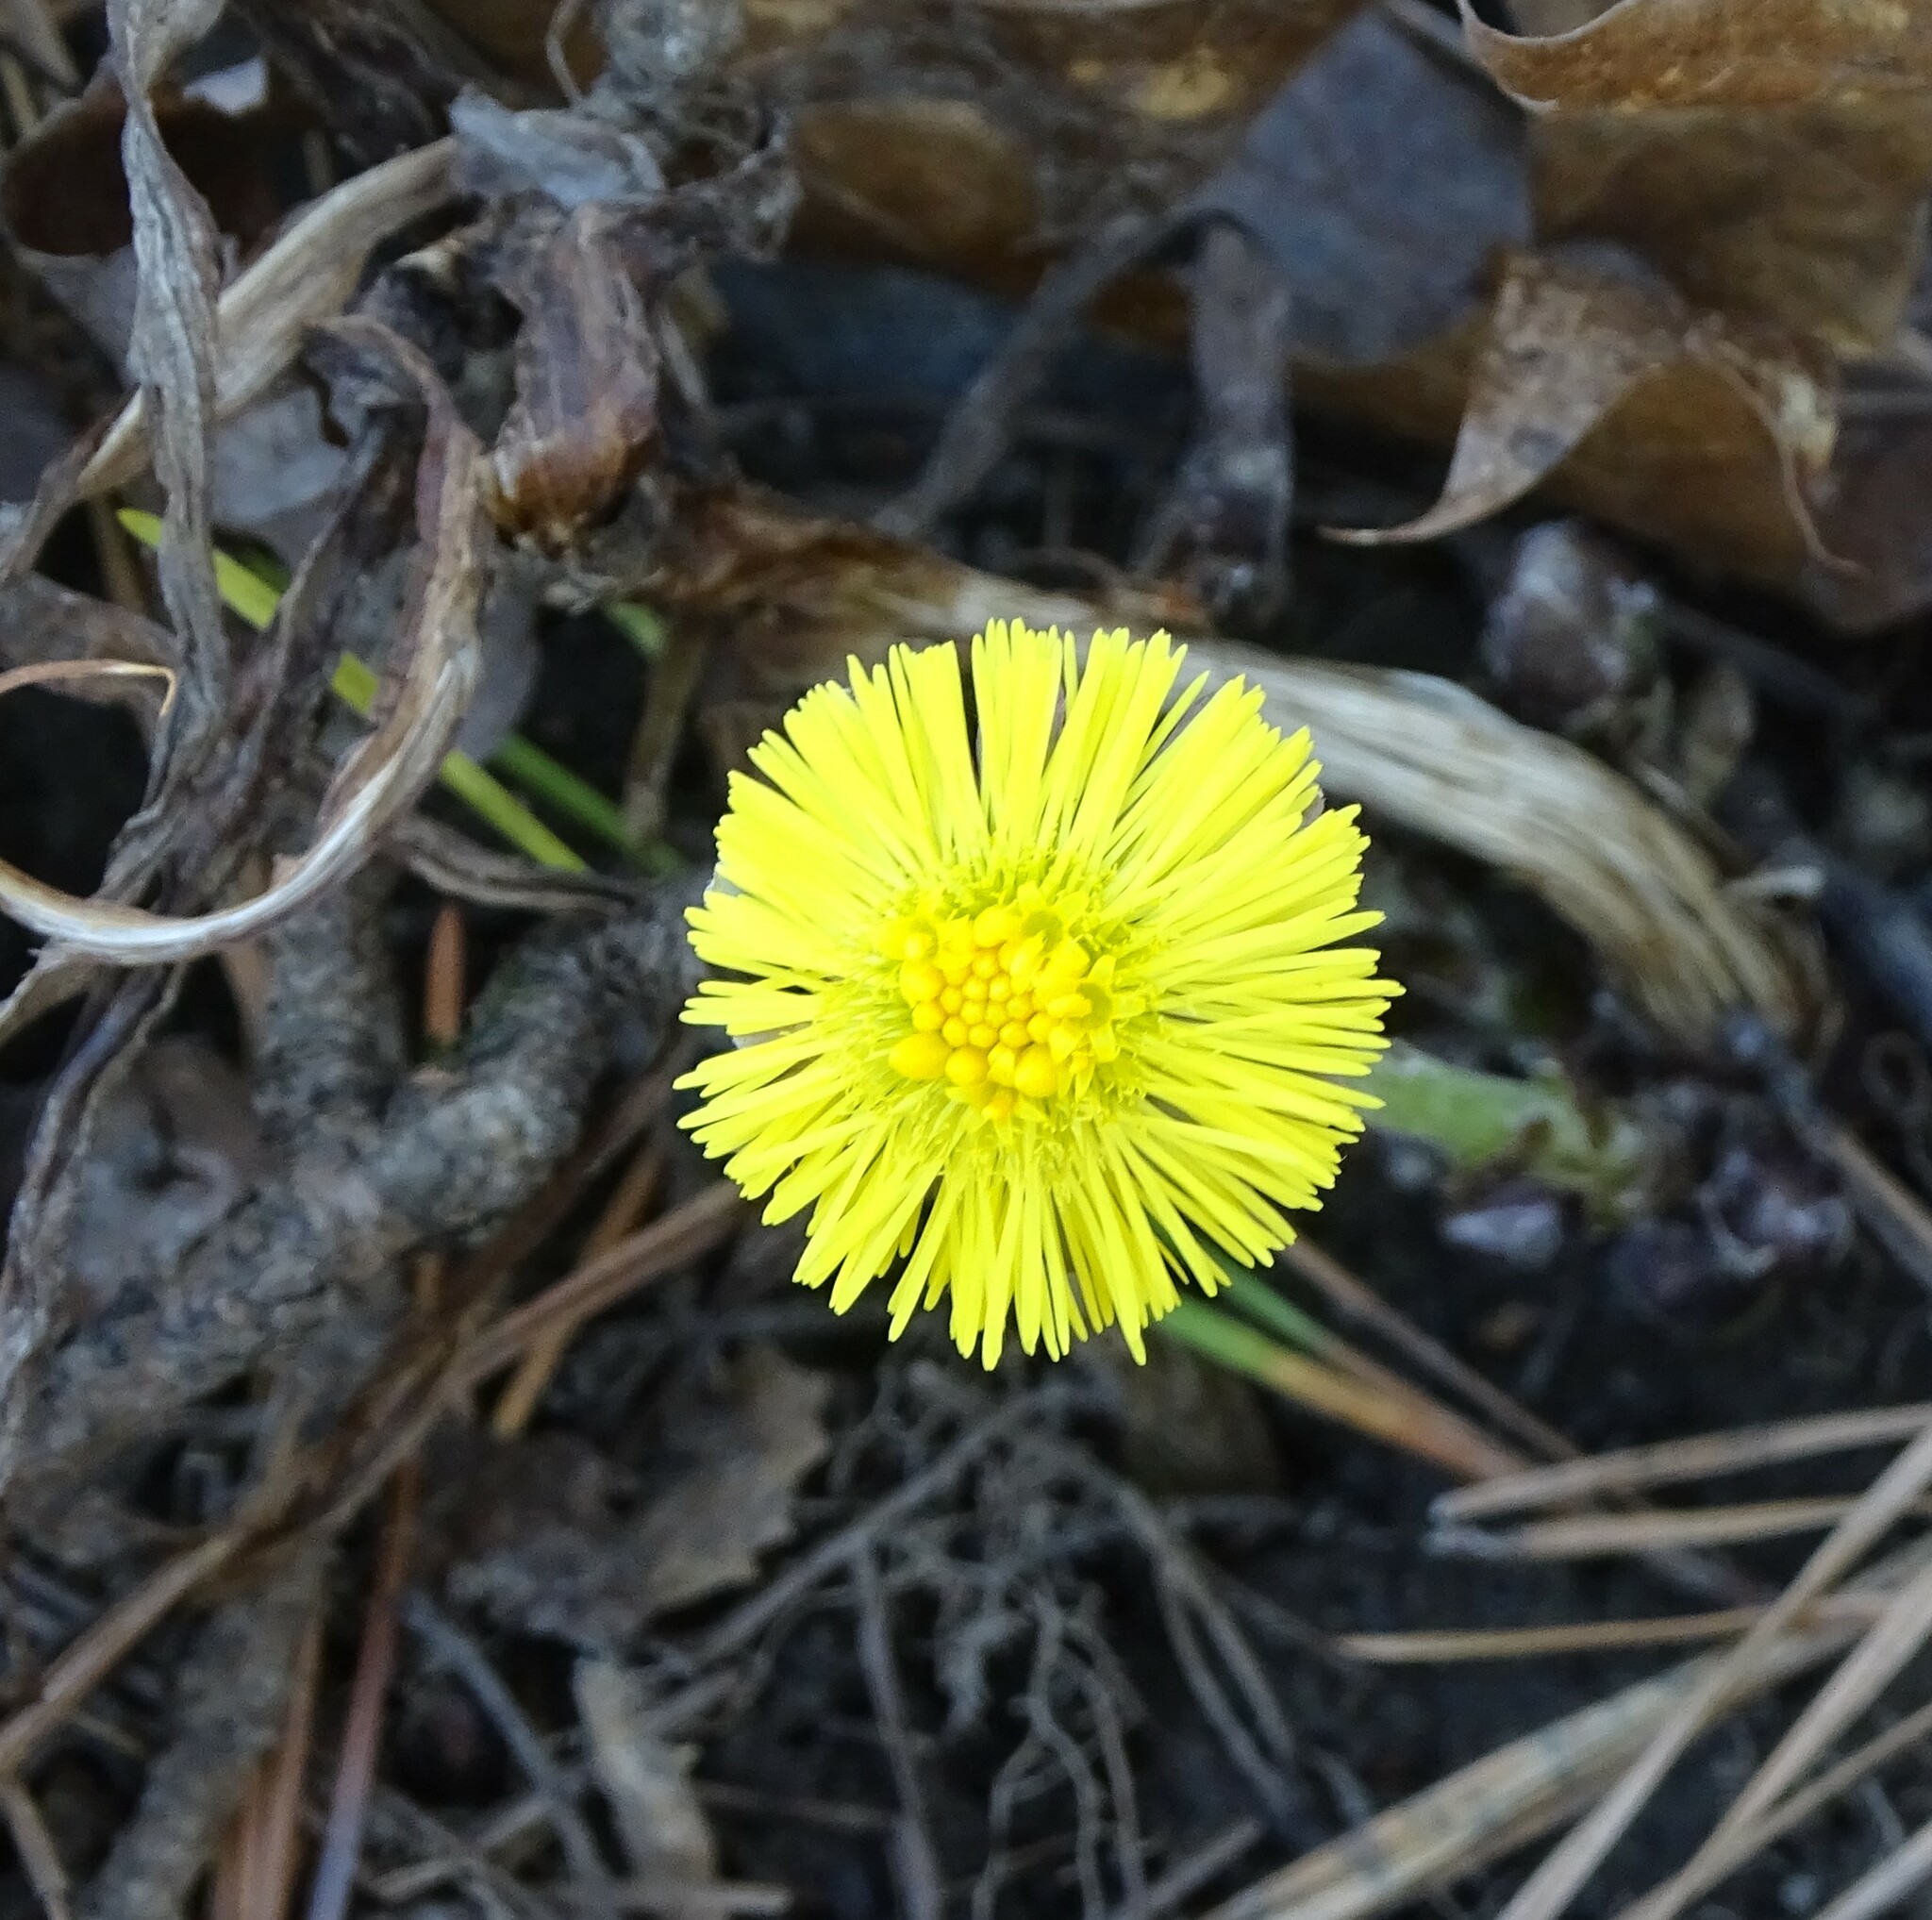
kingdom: Plantae
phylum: Tracheophyta
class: Magnoliopsida
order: Asterales
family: Asteraceae
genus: Tussilago
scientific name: Tussilago farfara
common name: Coltsfoot
